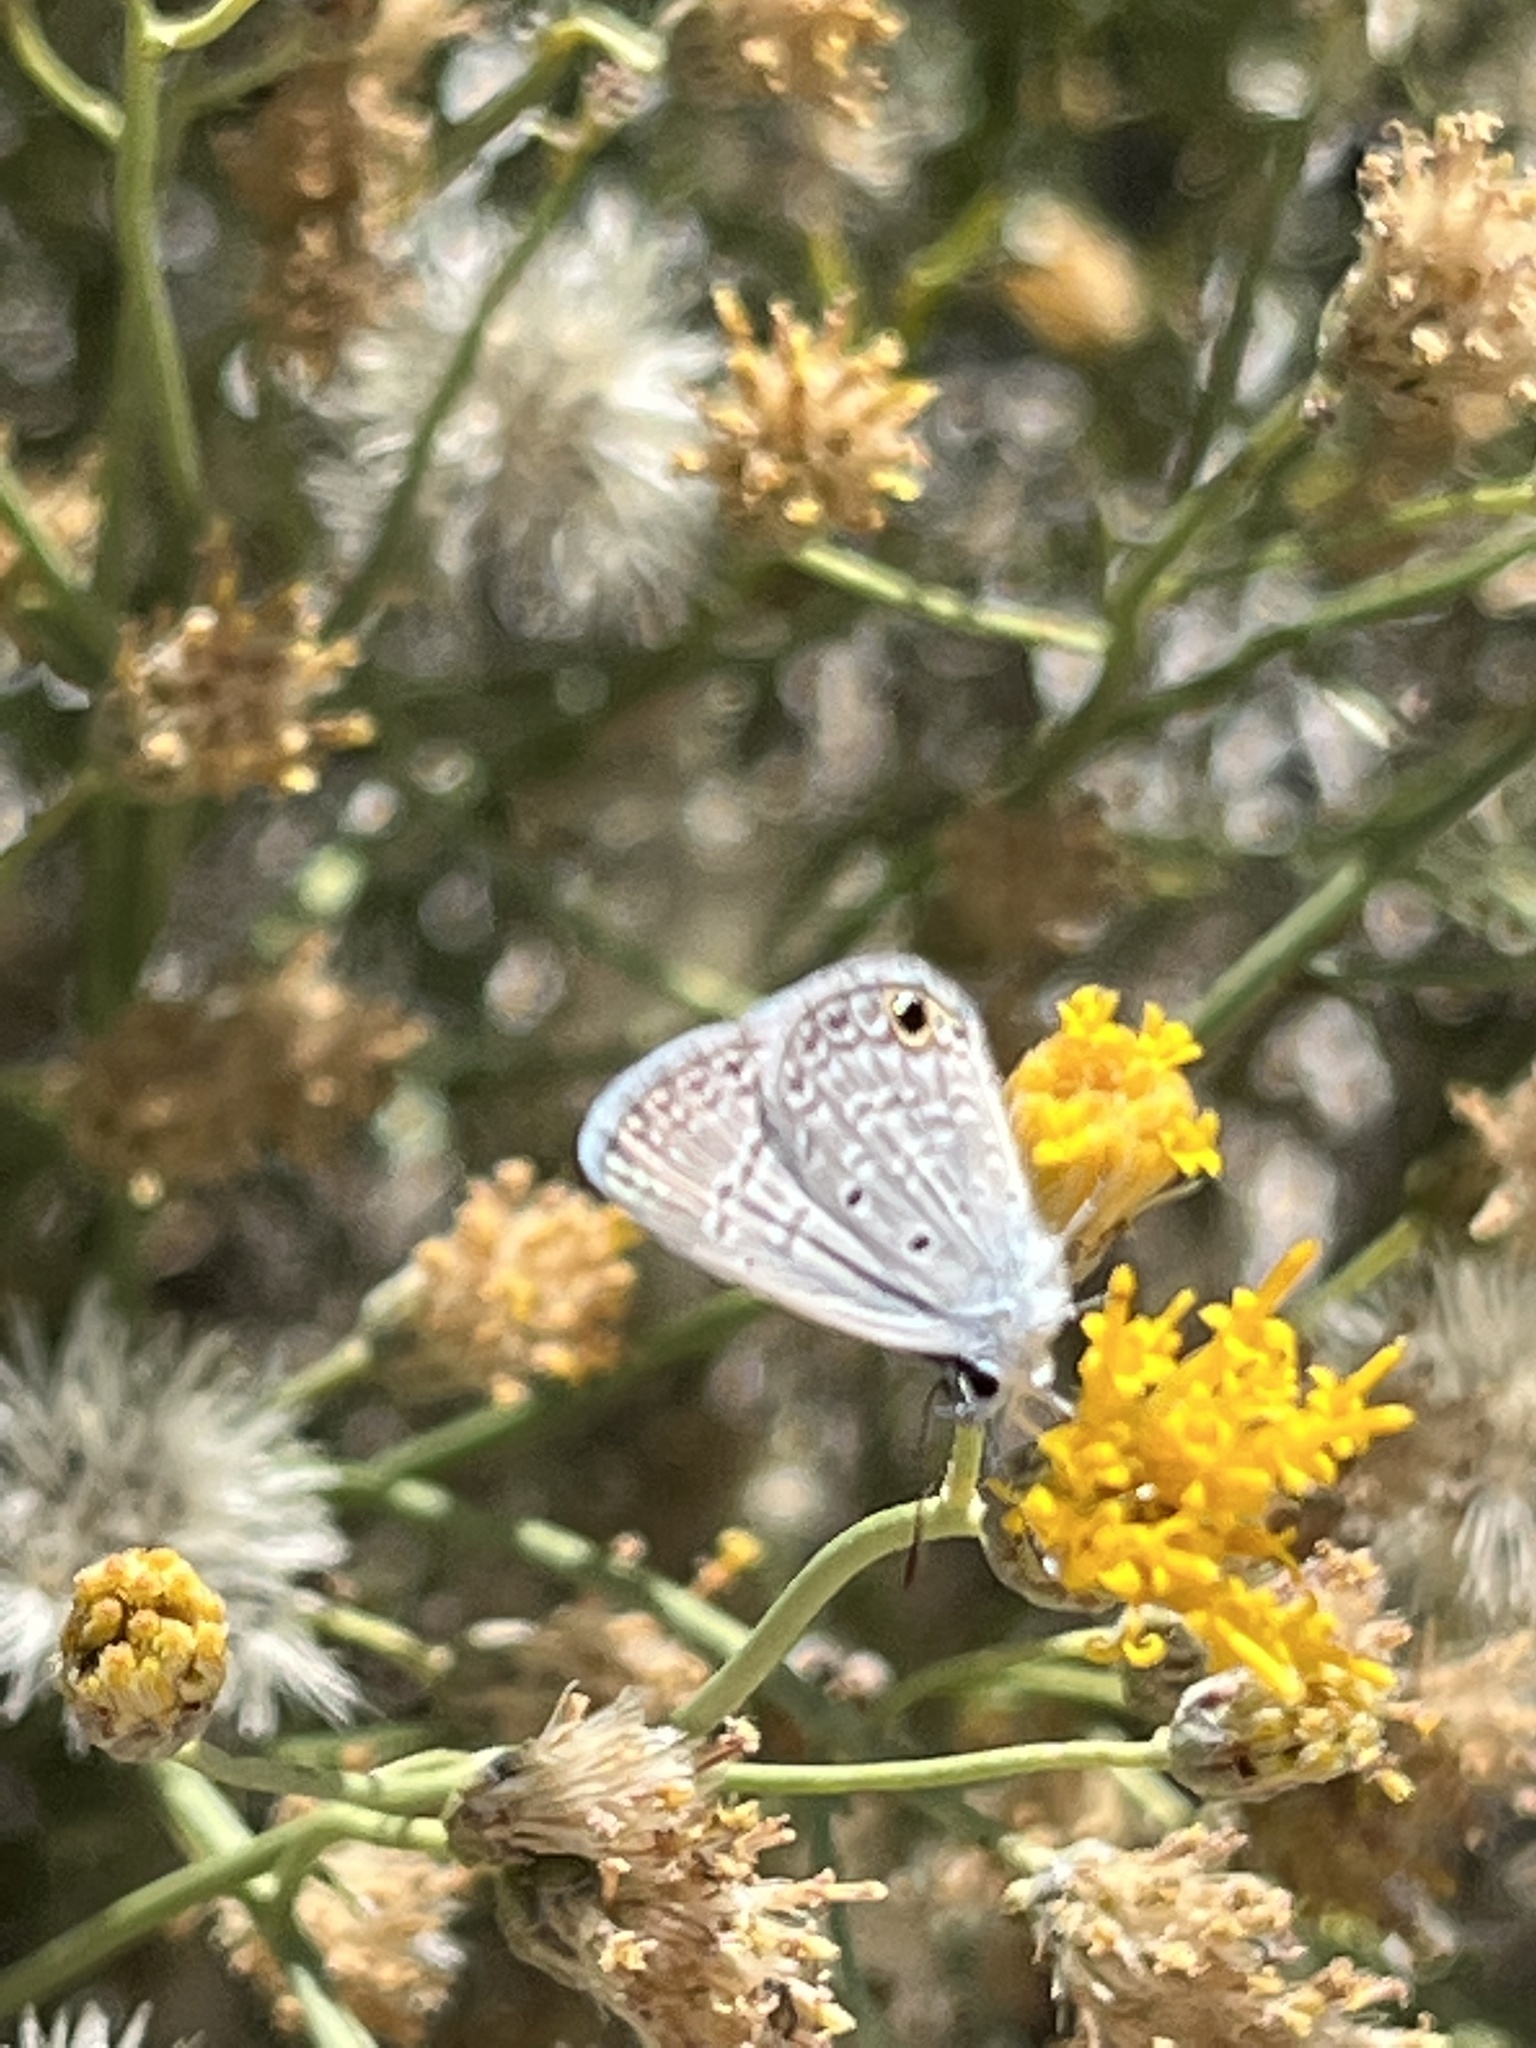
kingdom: Animalia
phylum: Arthropoda
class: Insecta
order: Lepidoptera
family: Lycaenidae
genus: Hemiargus
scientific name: Hemiargus ceraunus
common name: Ceraunus blue
